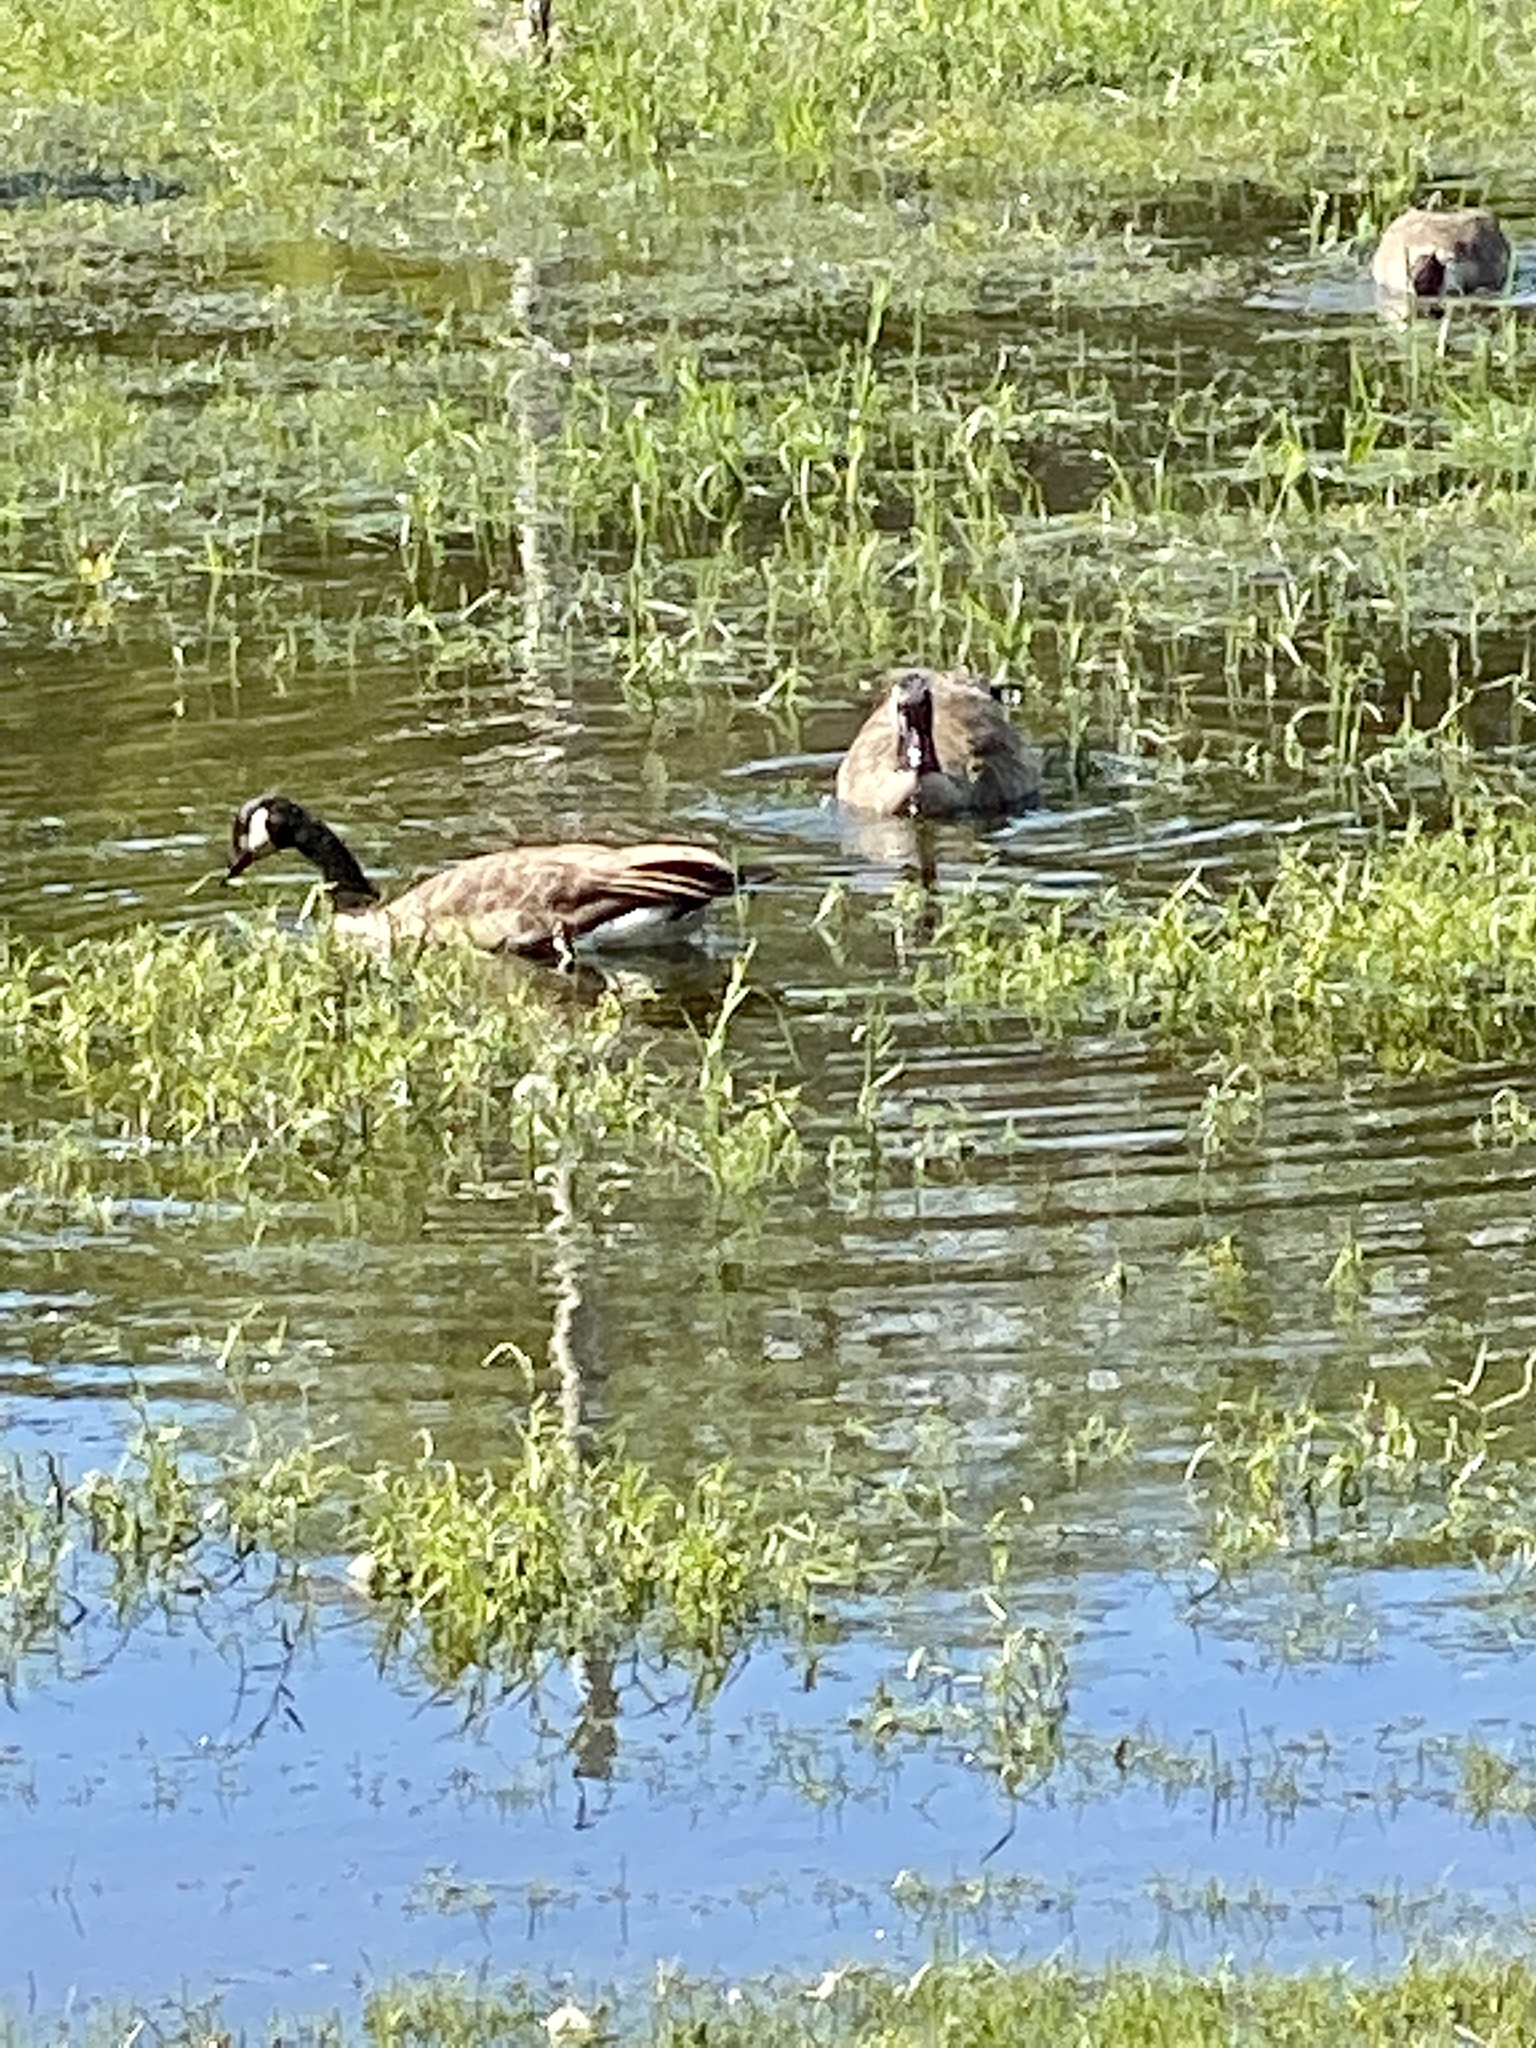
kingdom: Animalia
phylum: Chordata
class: Aves
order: Anseriformes
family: Anatidae
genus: Branta
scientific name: Branta canadensis
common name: Canada goose
